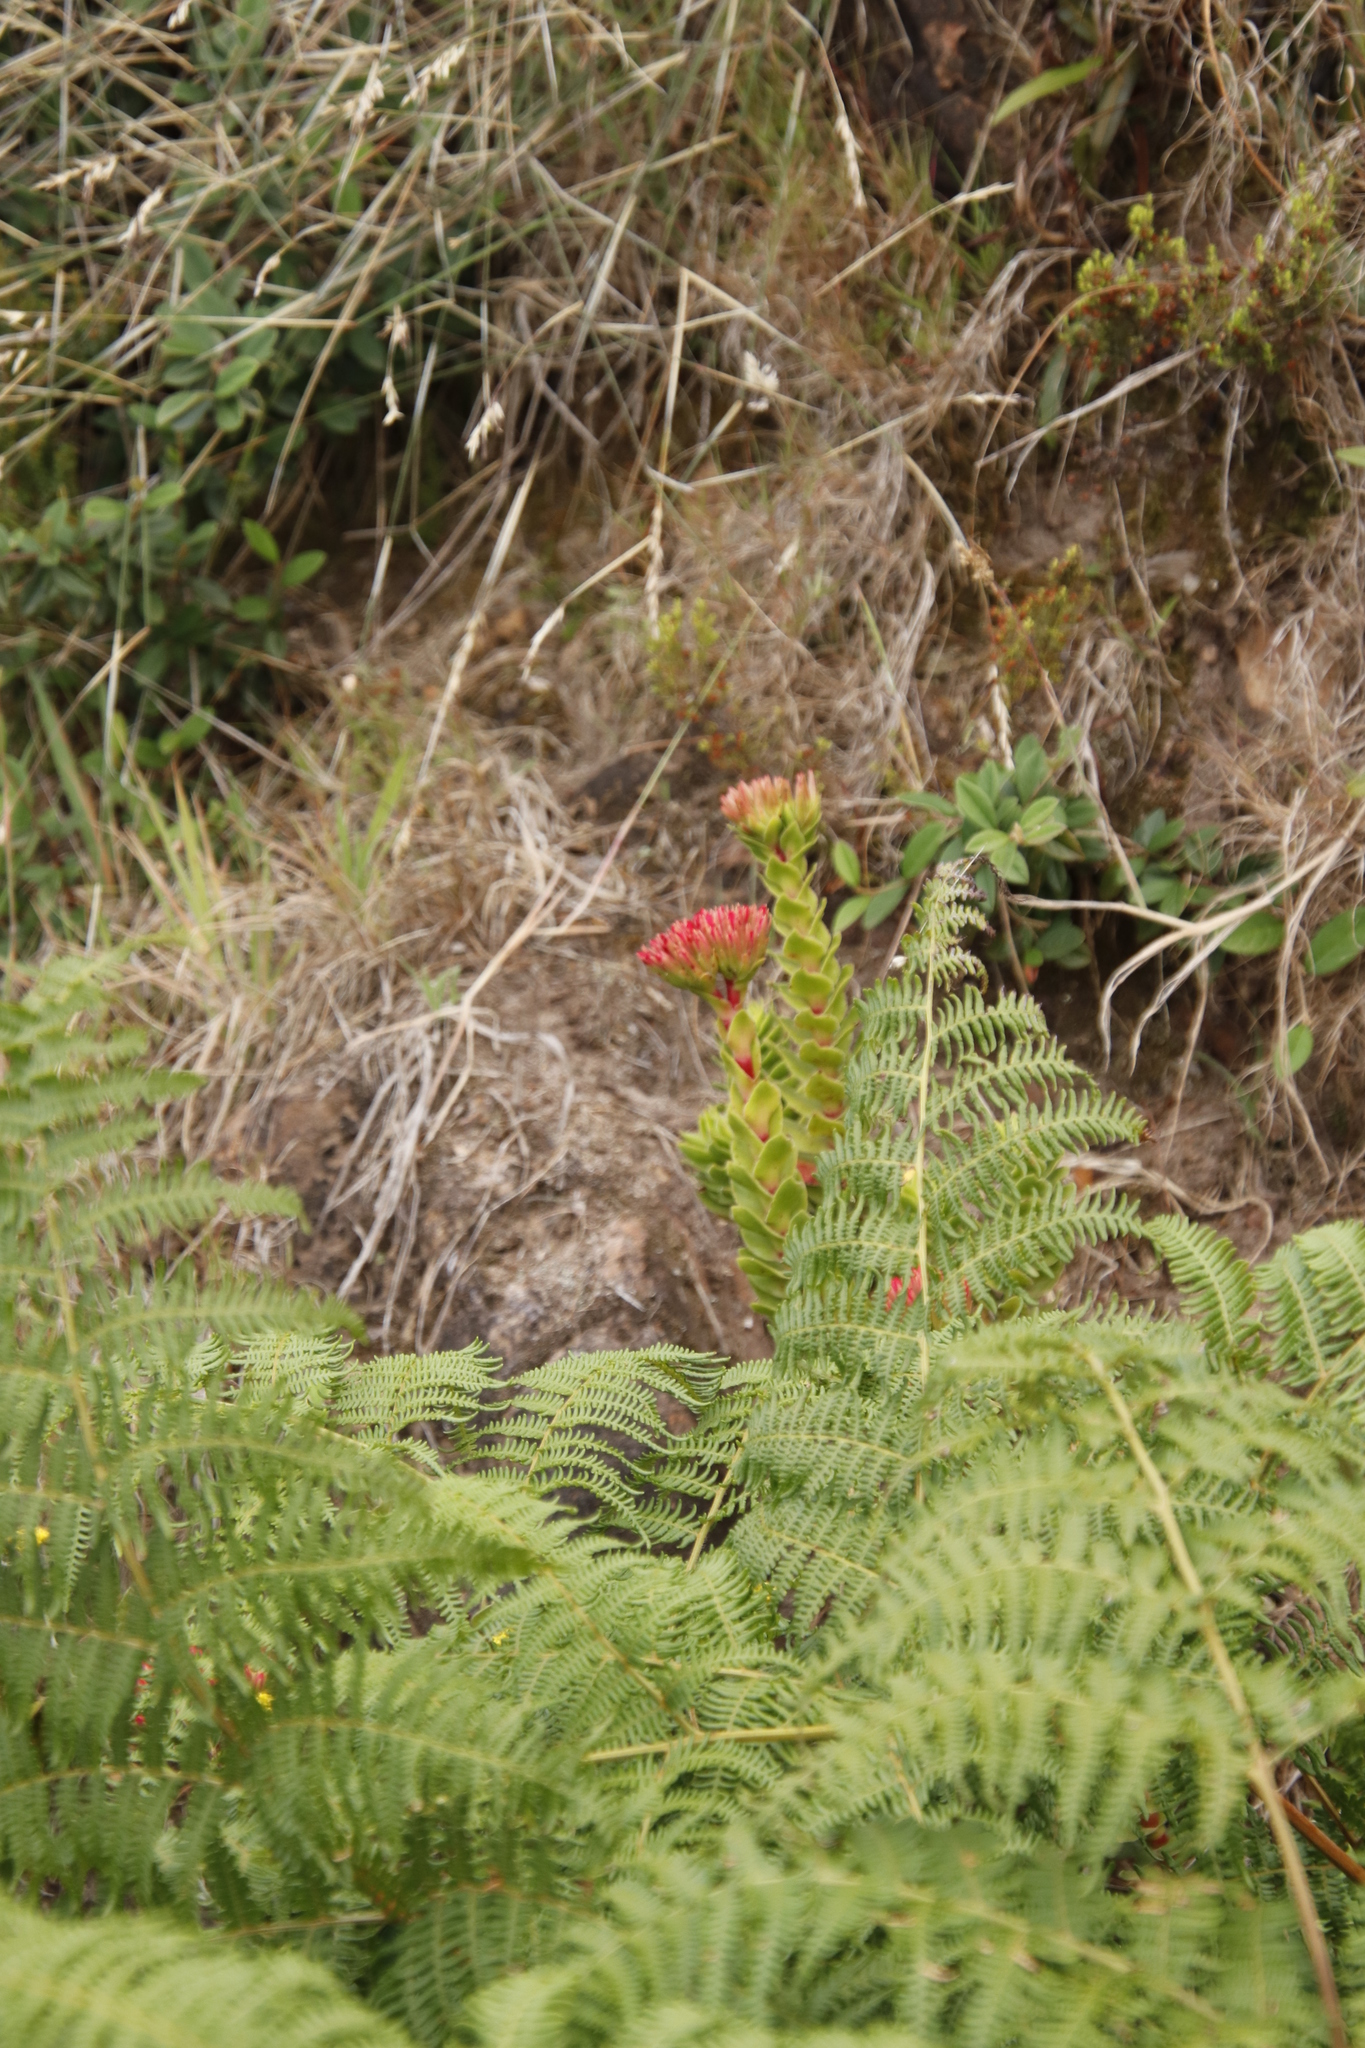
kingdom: Plantae
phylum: Tracheophyta
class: Magnoliopsida
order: Saxifragales
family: Crassulaceae
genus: Crassula
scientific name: Crassula coccinea
